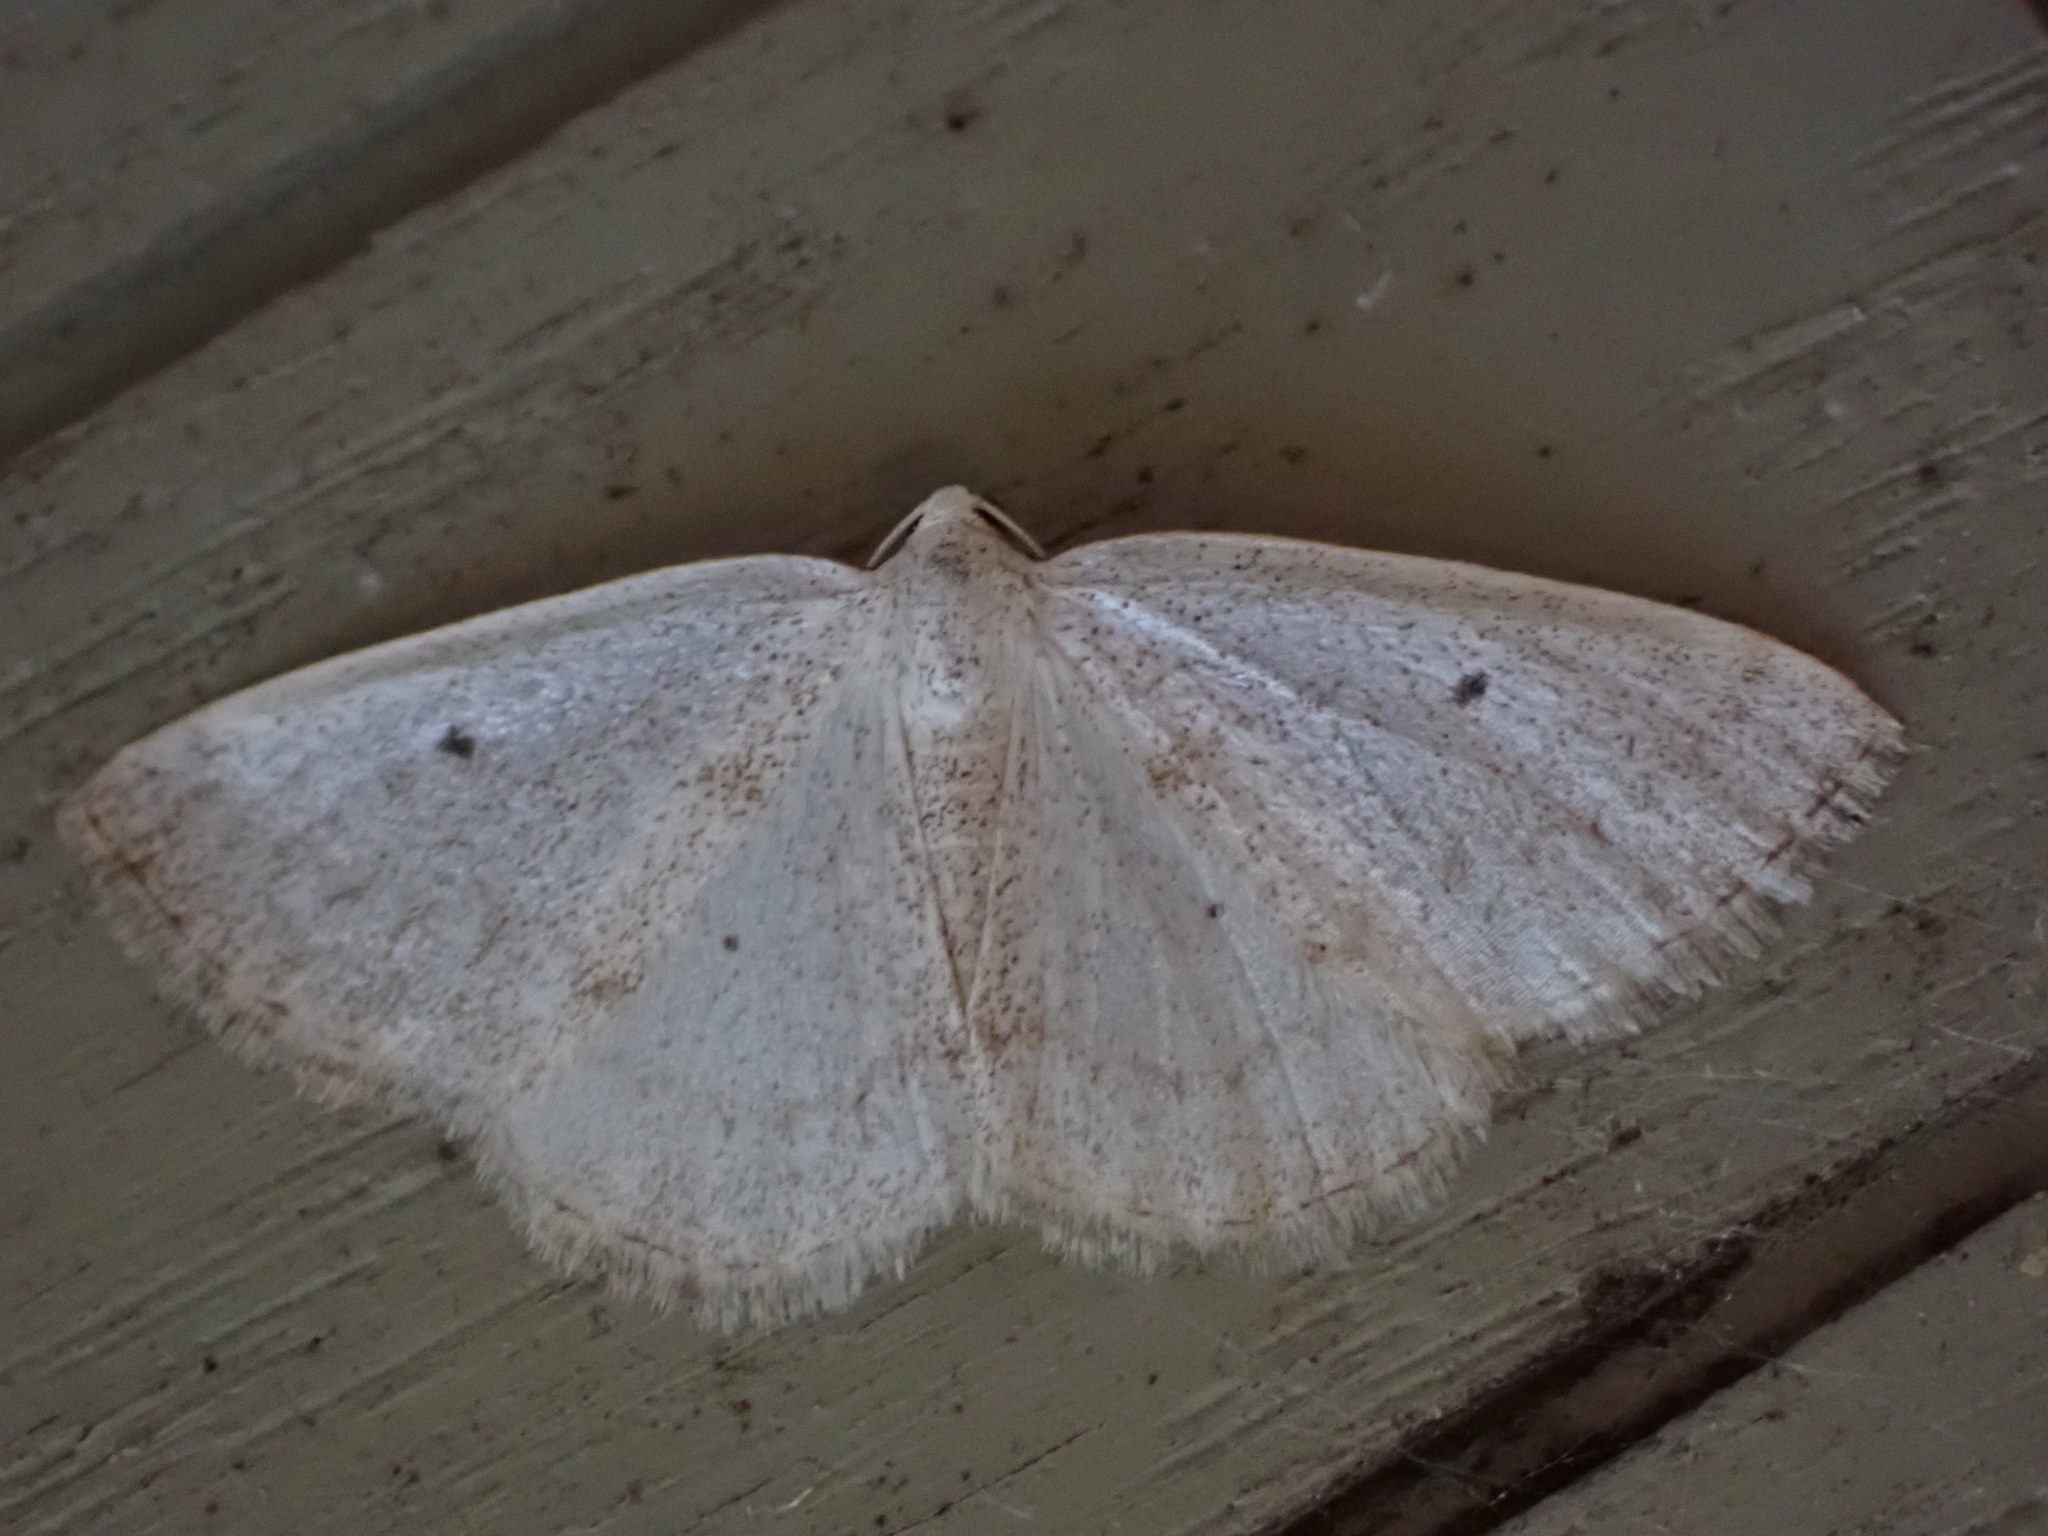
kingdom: Animalia
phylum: Arthropoda
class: Insecta
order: Lepidoptera
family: Geometridae
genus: Lomographa
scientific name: Lomographa glomeraria
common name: Gray spring moth
